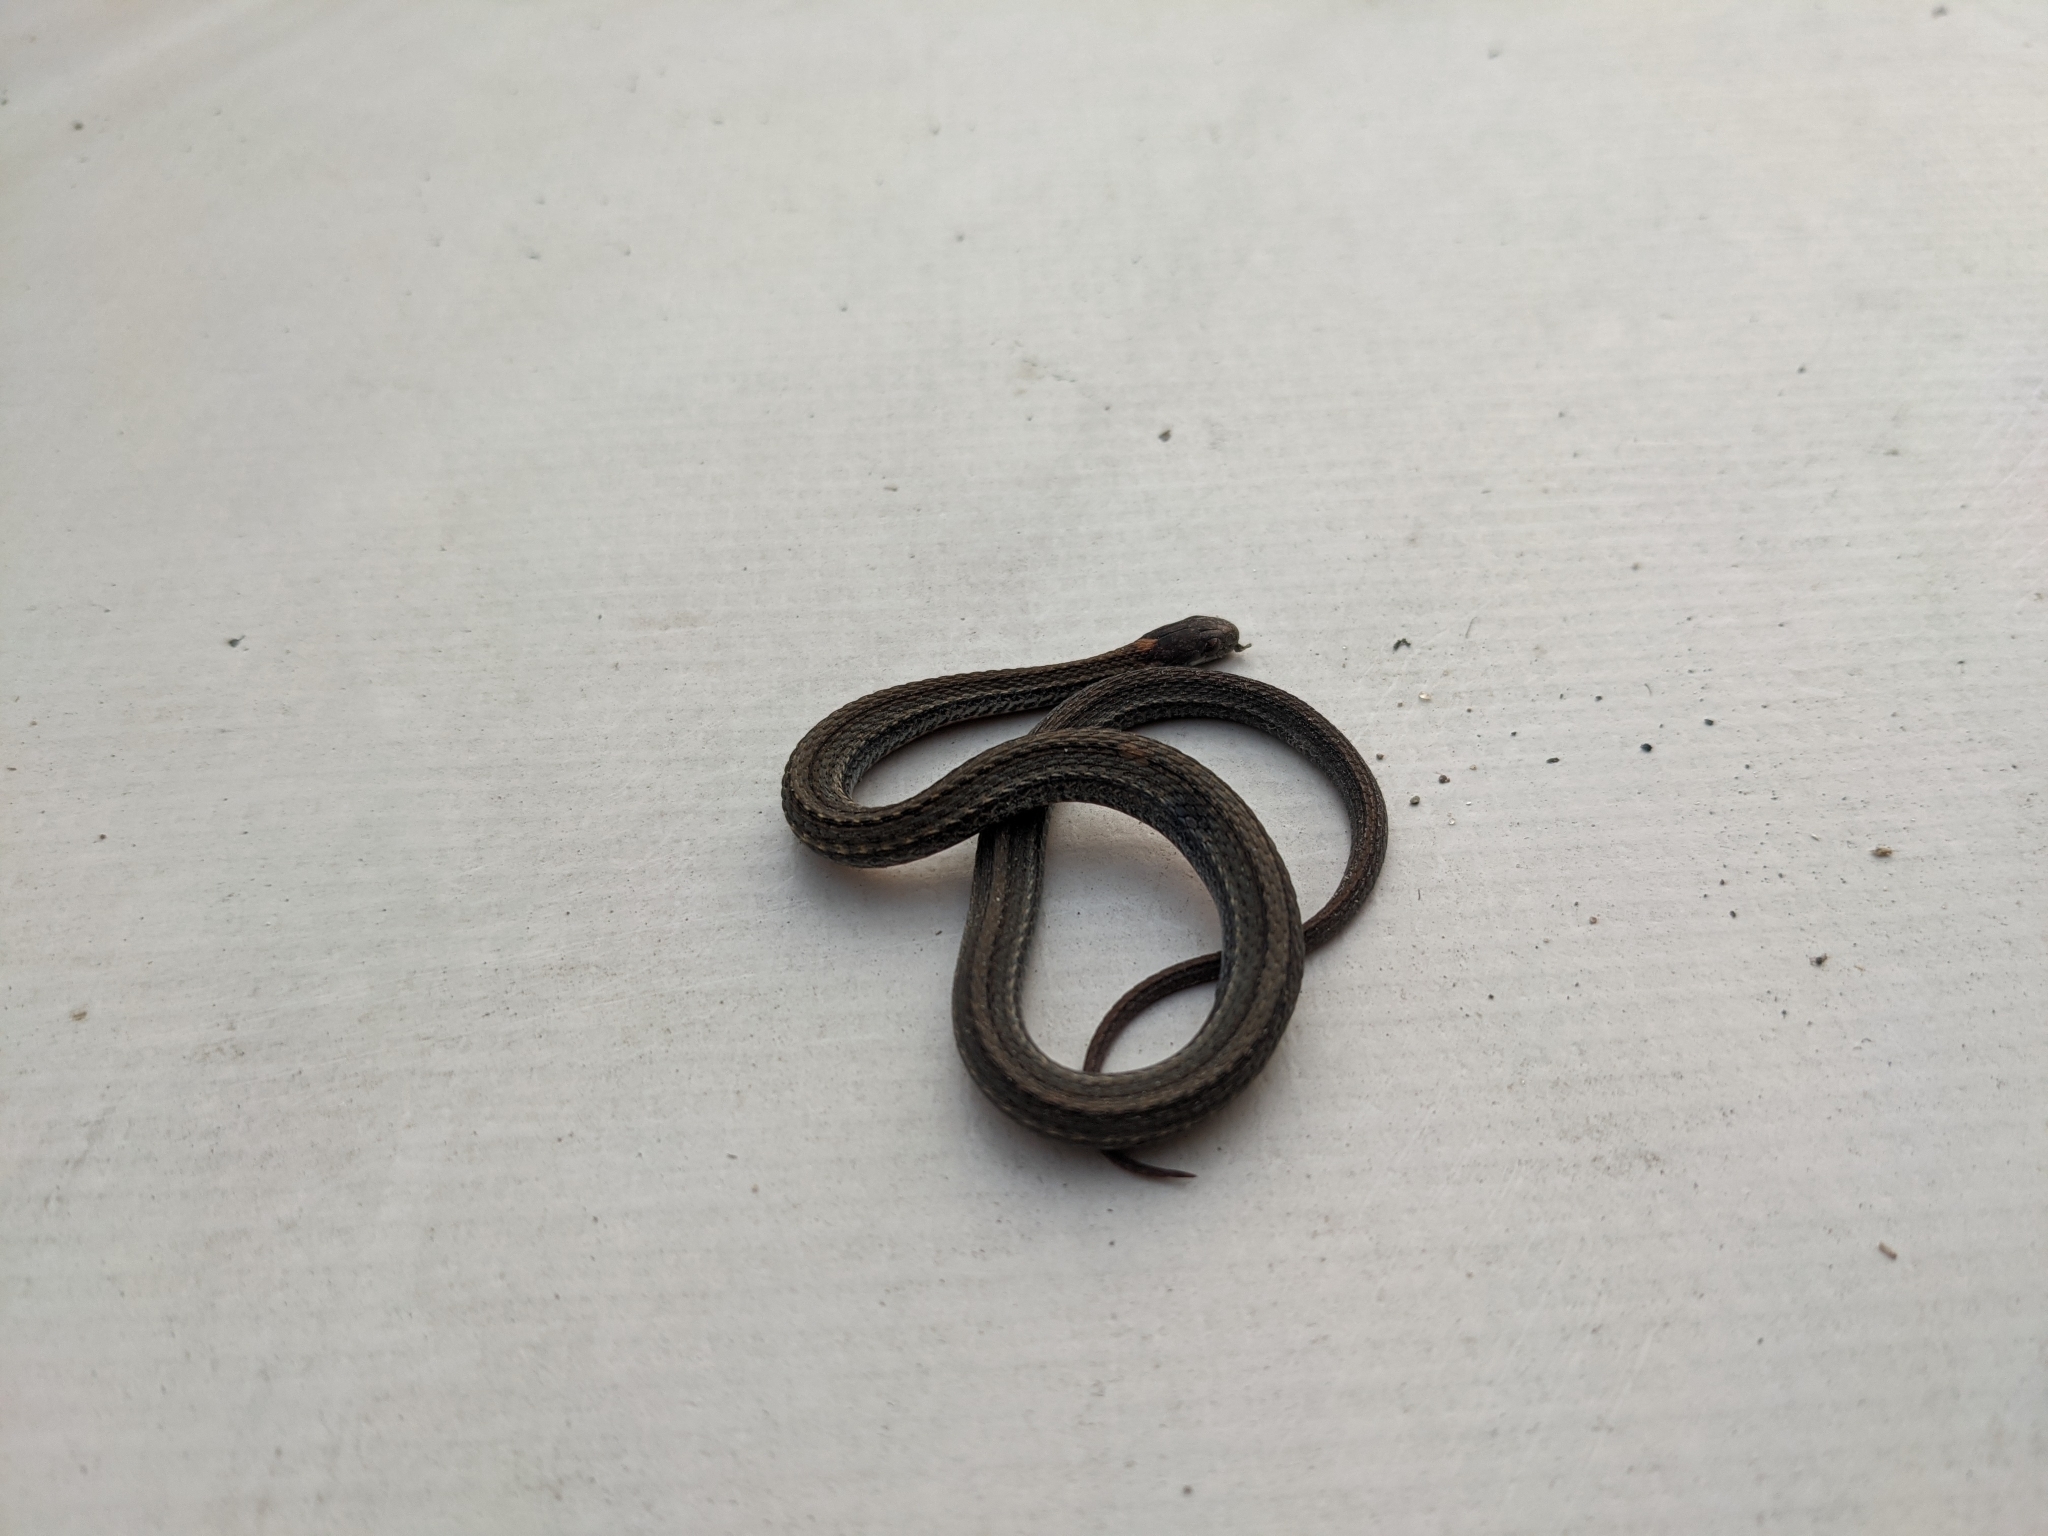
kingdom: Animalia
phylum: Chordata
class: Squamata
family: Colubridae
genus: Storeria
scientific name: Storeria occipitomaculata
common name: Redbelly snake
